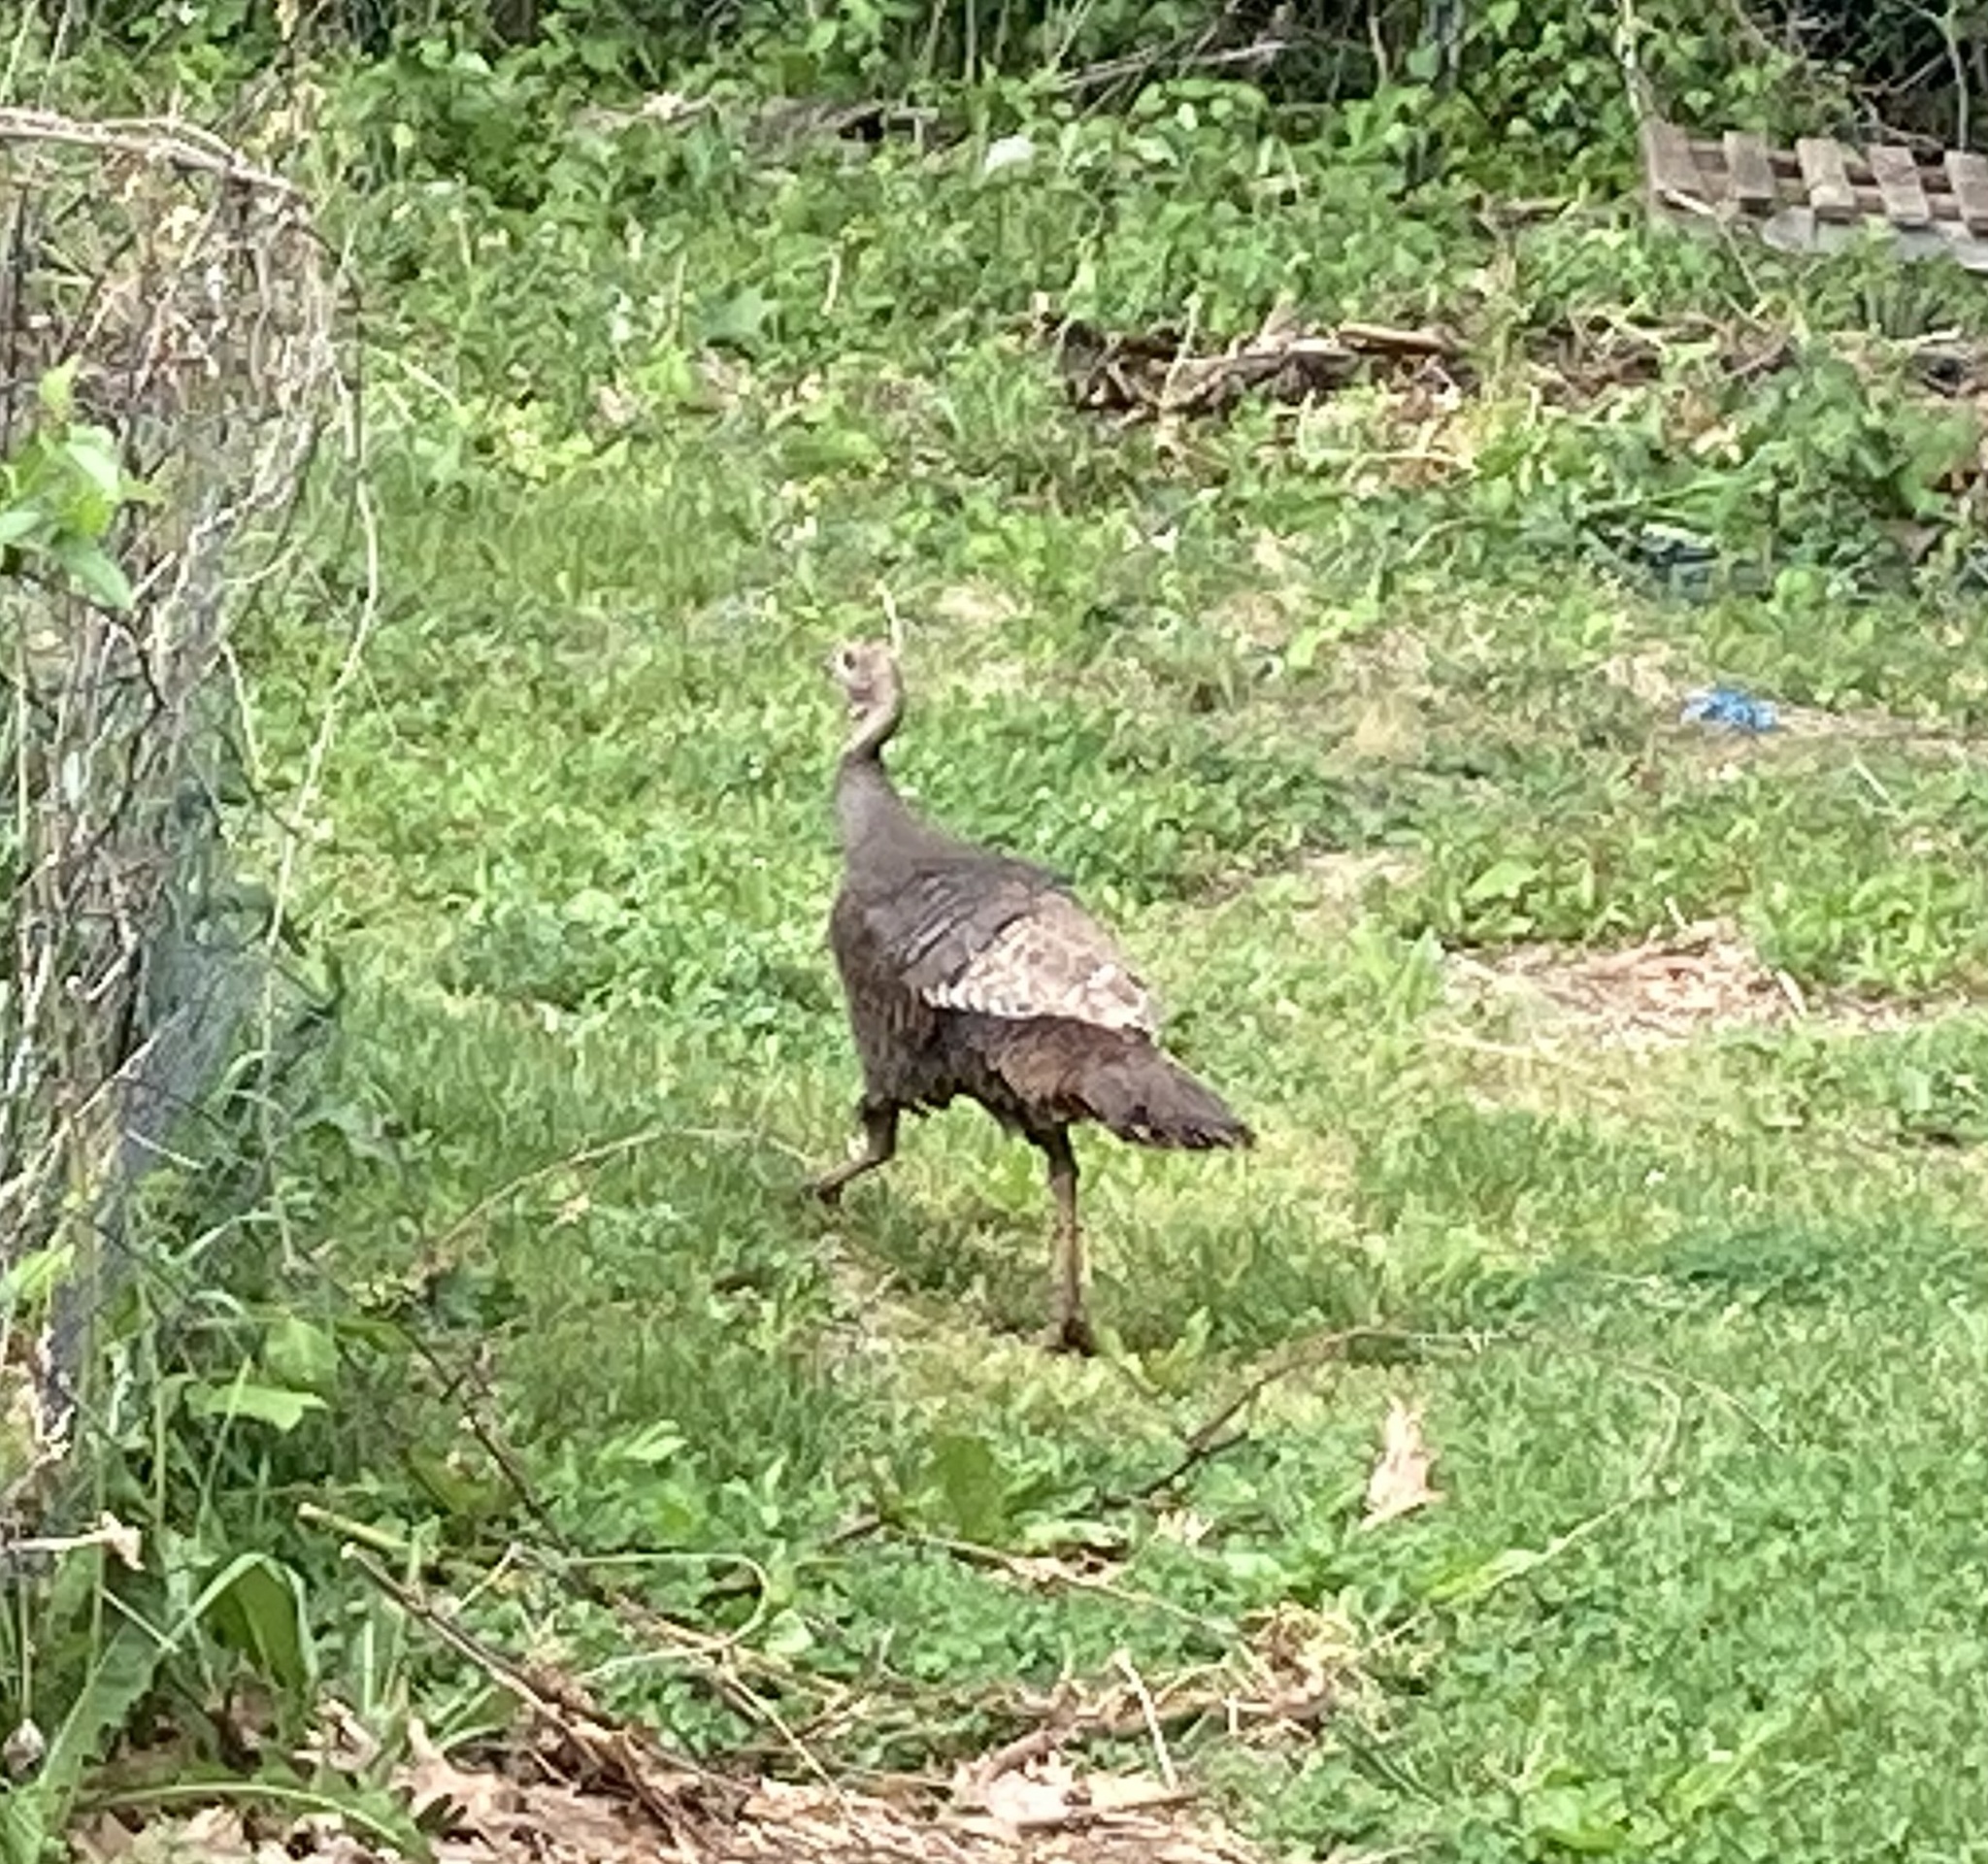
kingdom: Animalia
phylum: Chordata
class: Aves
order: Galliformes
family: Phasianidae
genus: Meleagris
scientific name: Meleagris gallopavo
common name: Wild turkey
